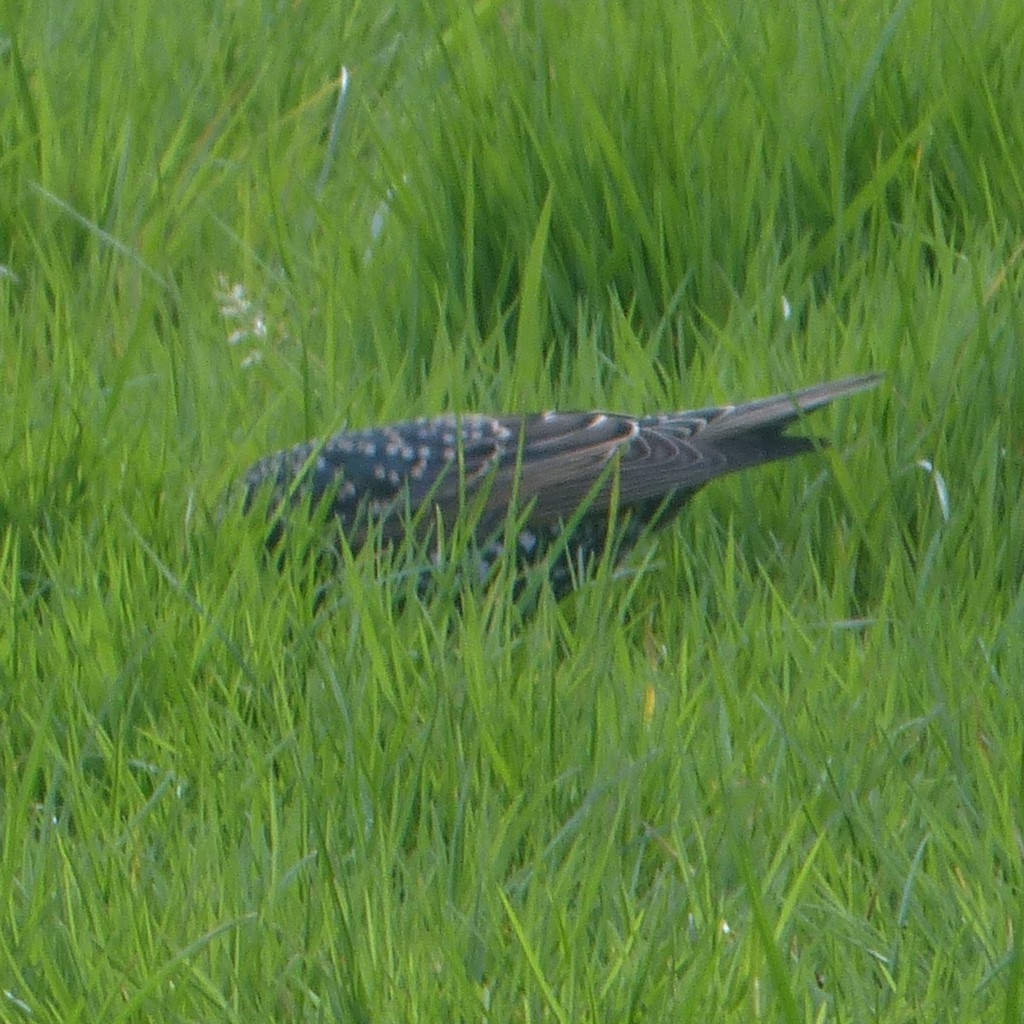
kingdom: Animalia
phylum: Chordata
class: Aves
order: Passeriformes
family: Sturnidae
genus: Sturnus
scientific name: Sturnus vulgaris
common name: Common starling
